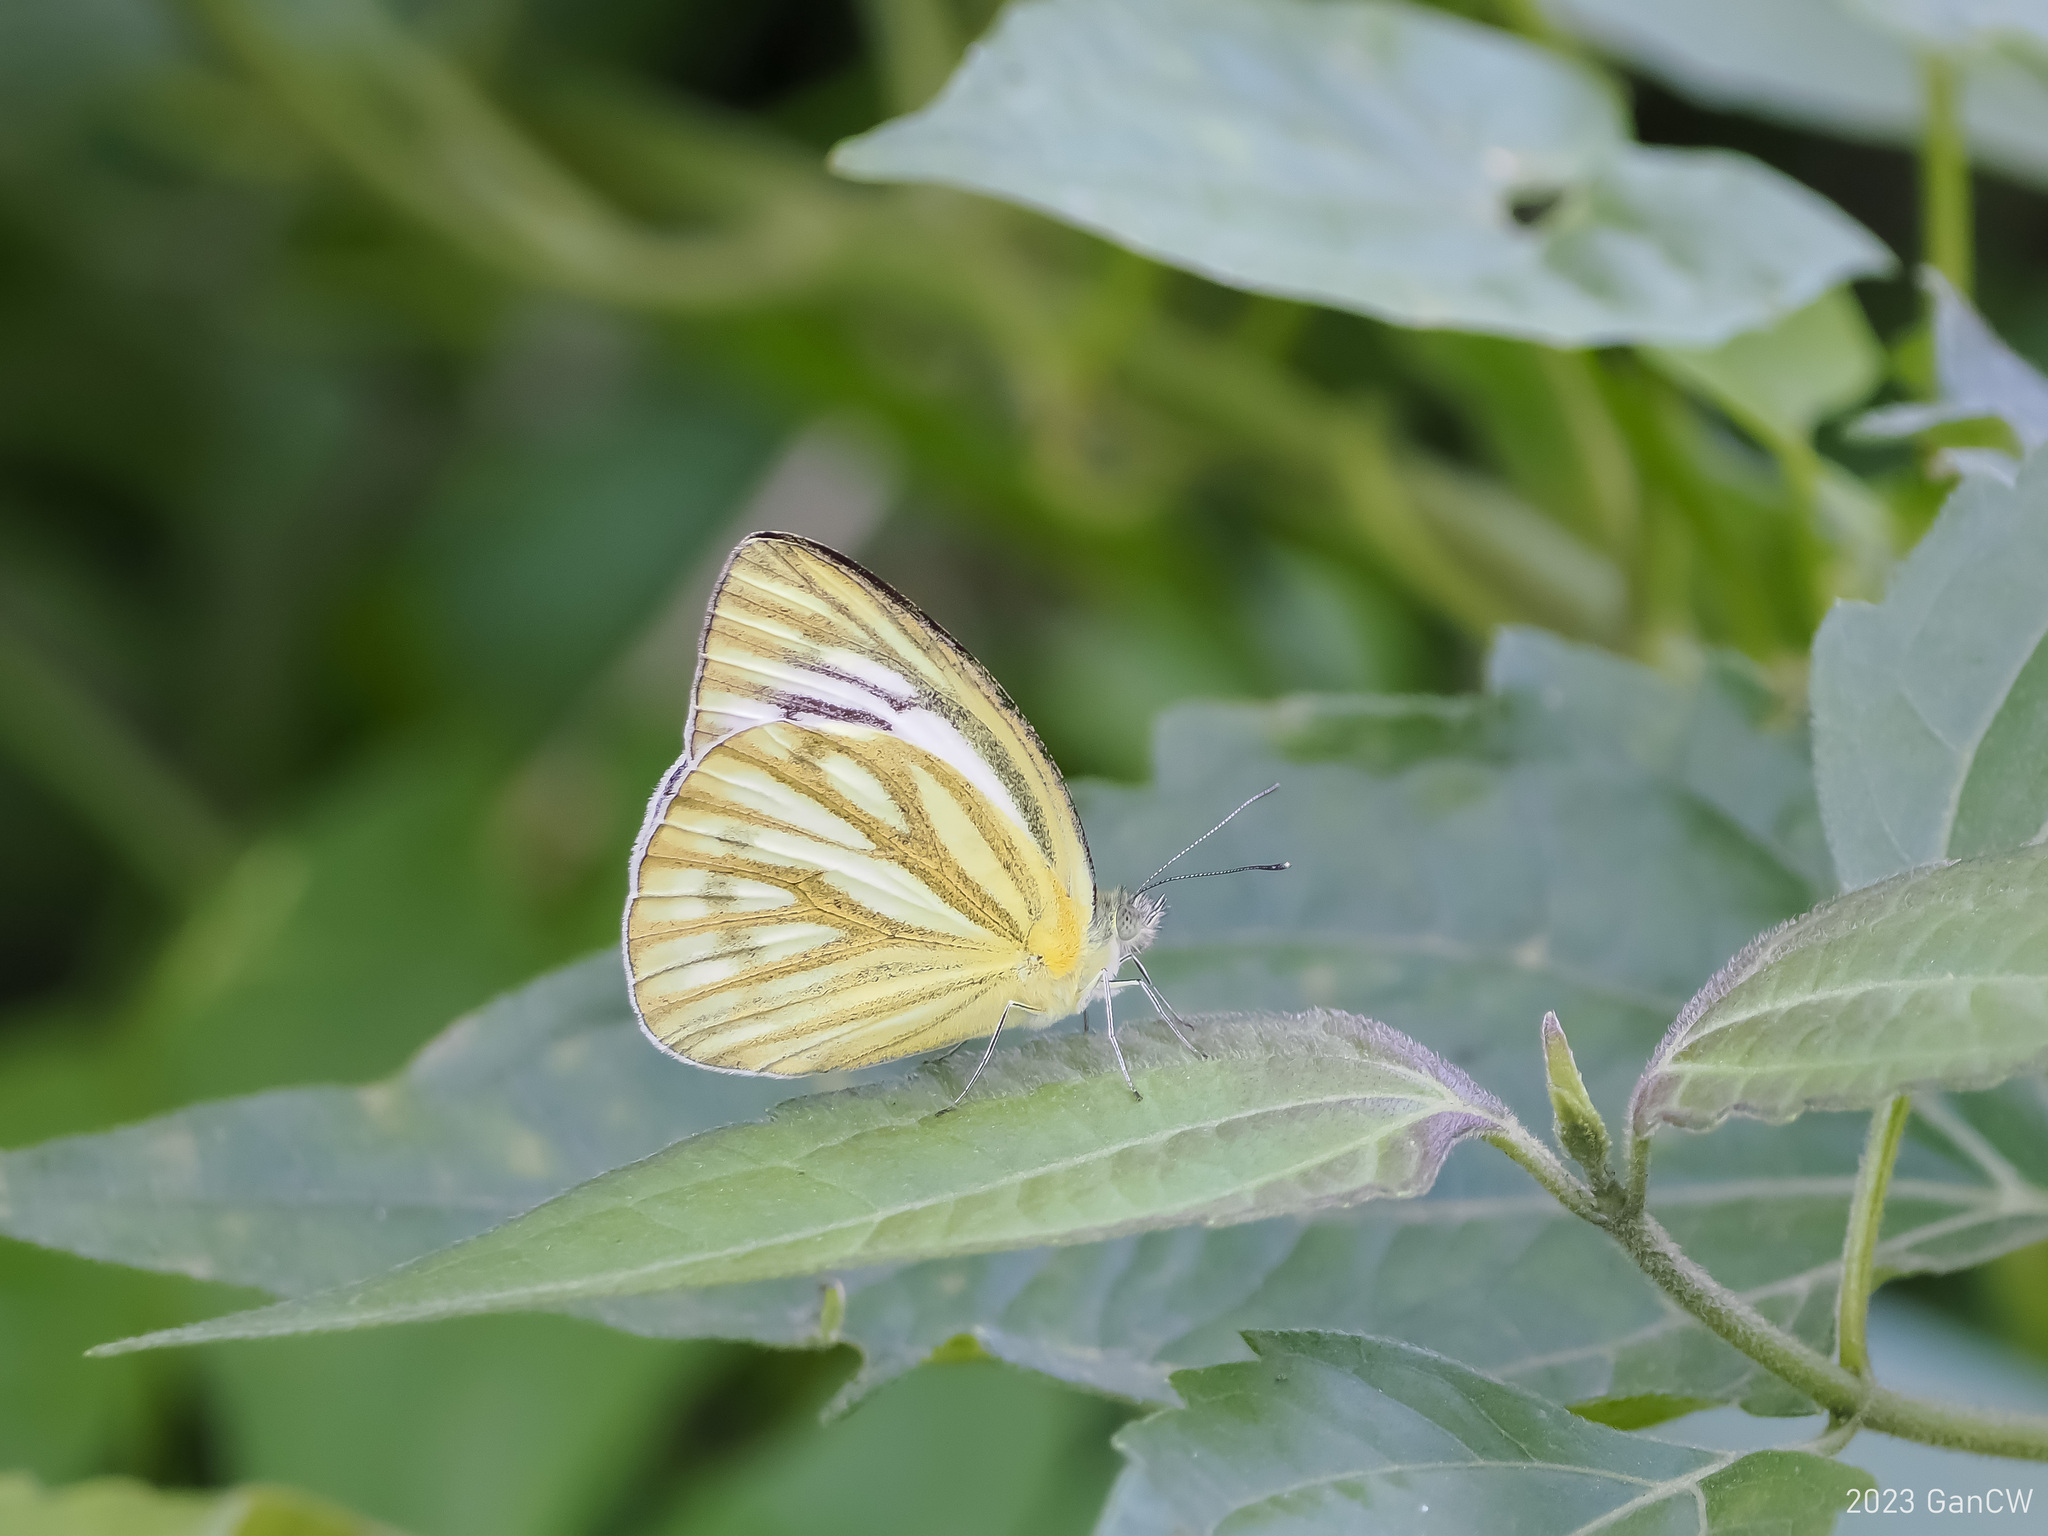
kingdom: Animalia
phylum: Arthropoda
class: Insecta
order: Lepidoptera
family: Pieridae
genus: Cepora
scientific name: Cepora nerissa
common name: Common gull
